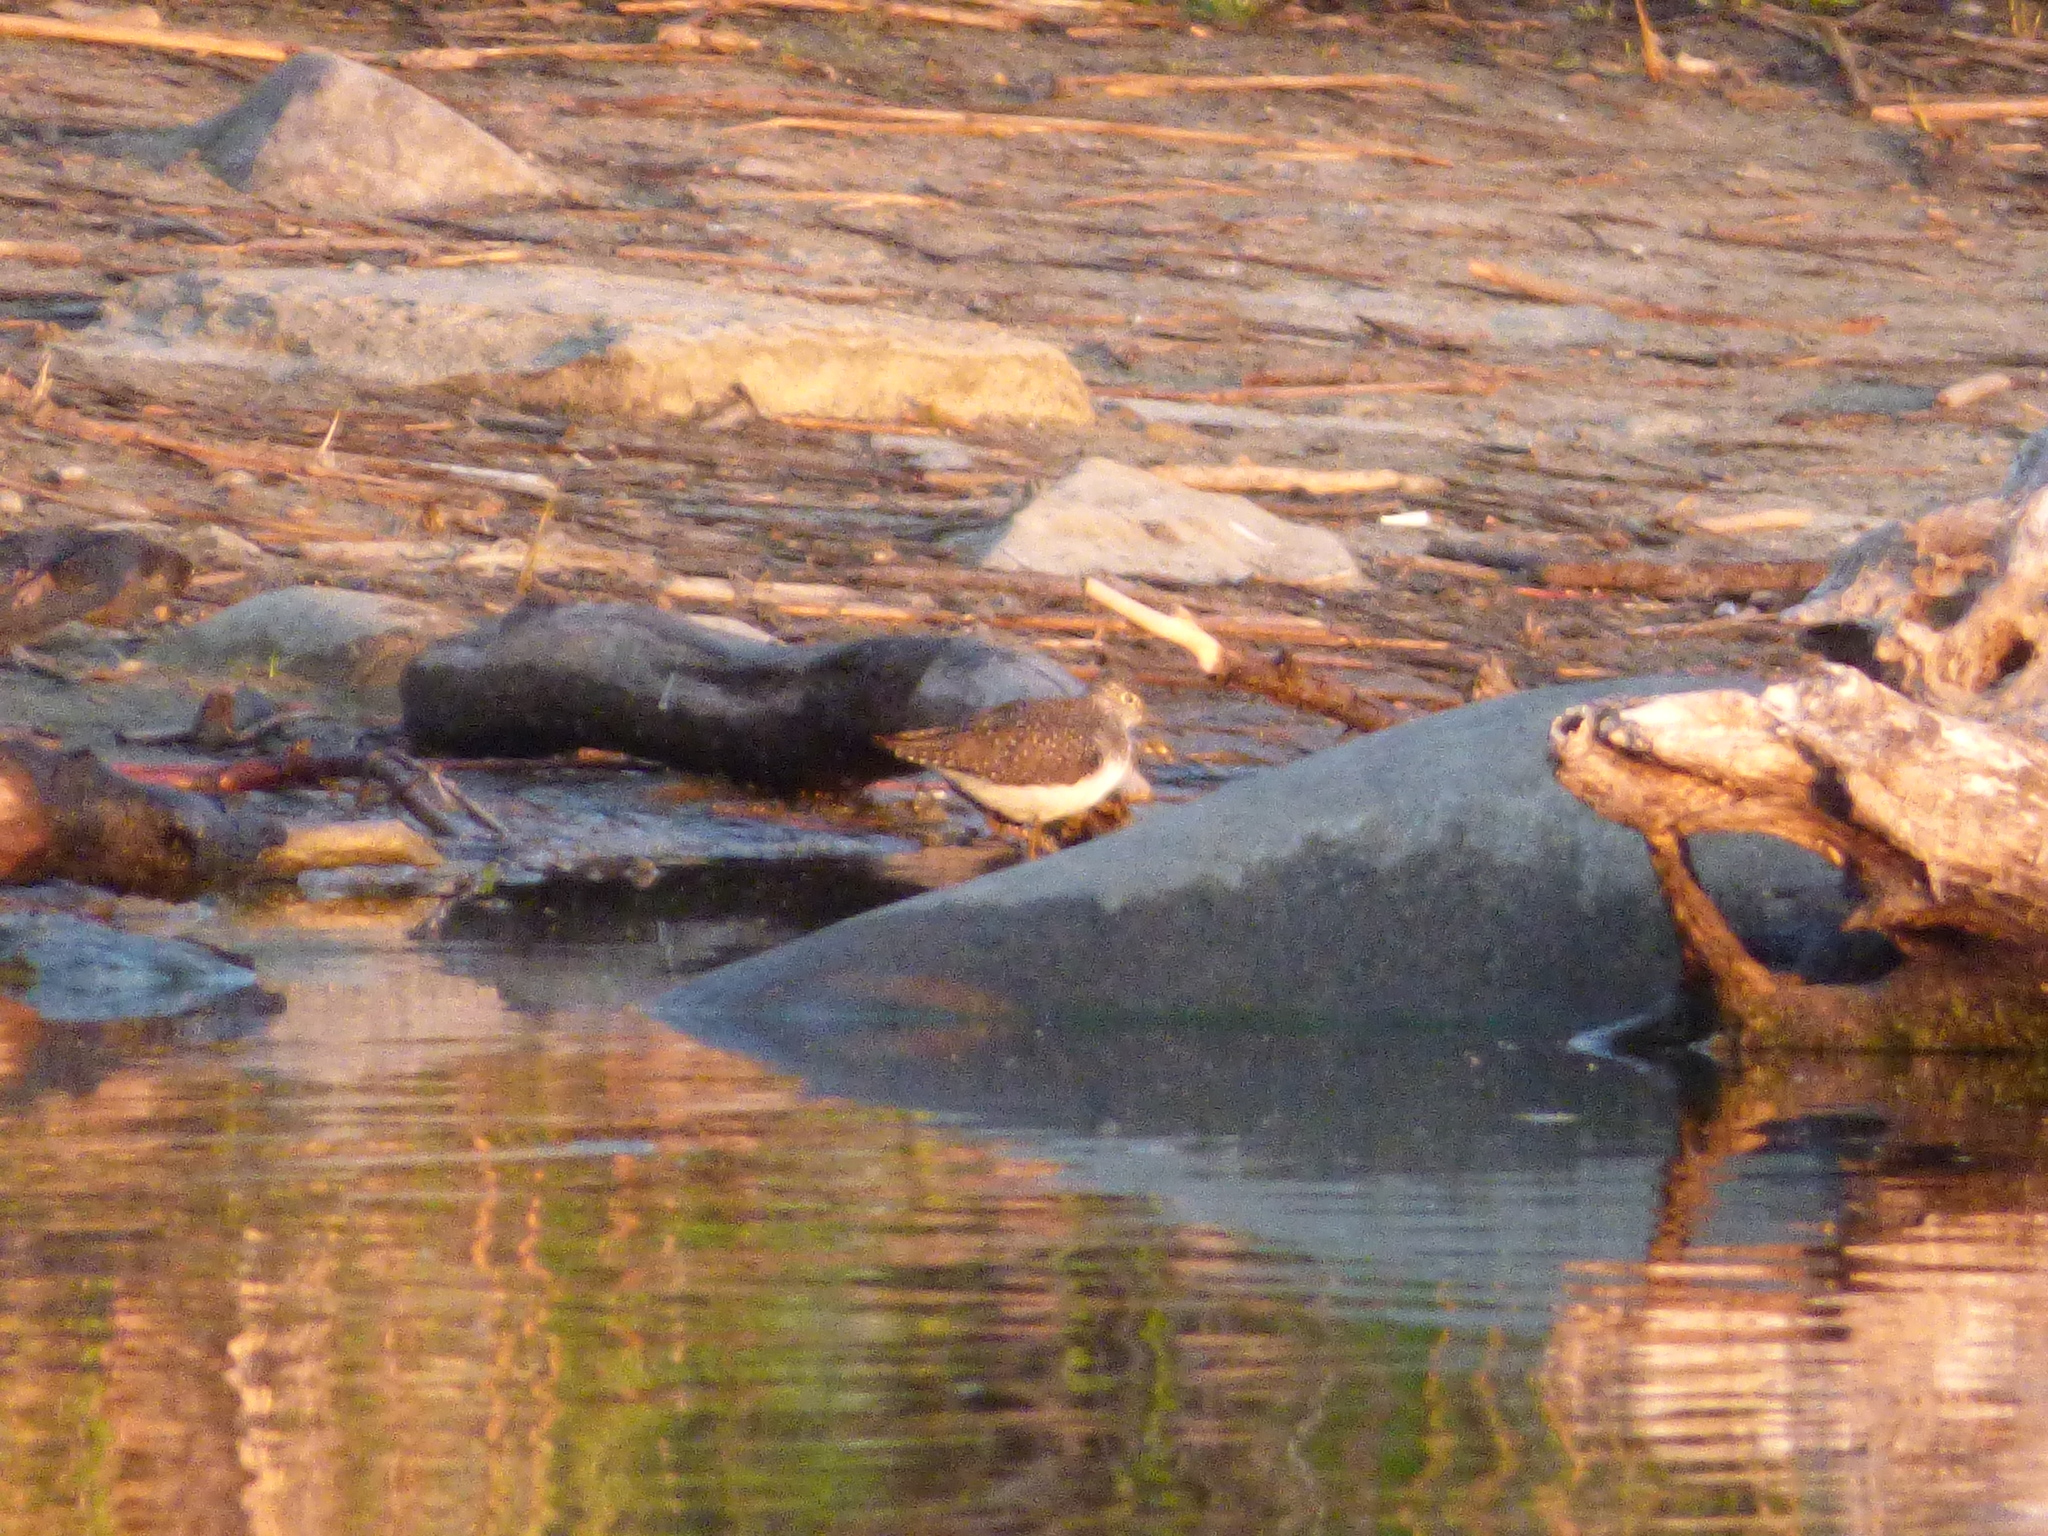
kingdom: Animalia
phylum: Chordata
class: Aves
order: Charadriiformes
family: Scolopacidae
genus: Tringa
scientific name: Tringa solitaria
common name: Solitary sandpiper
